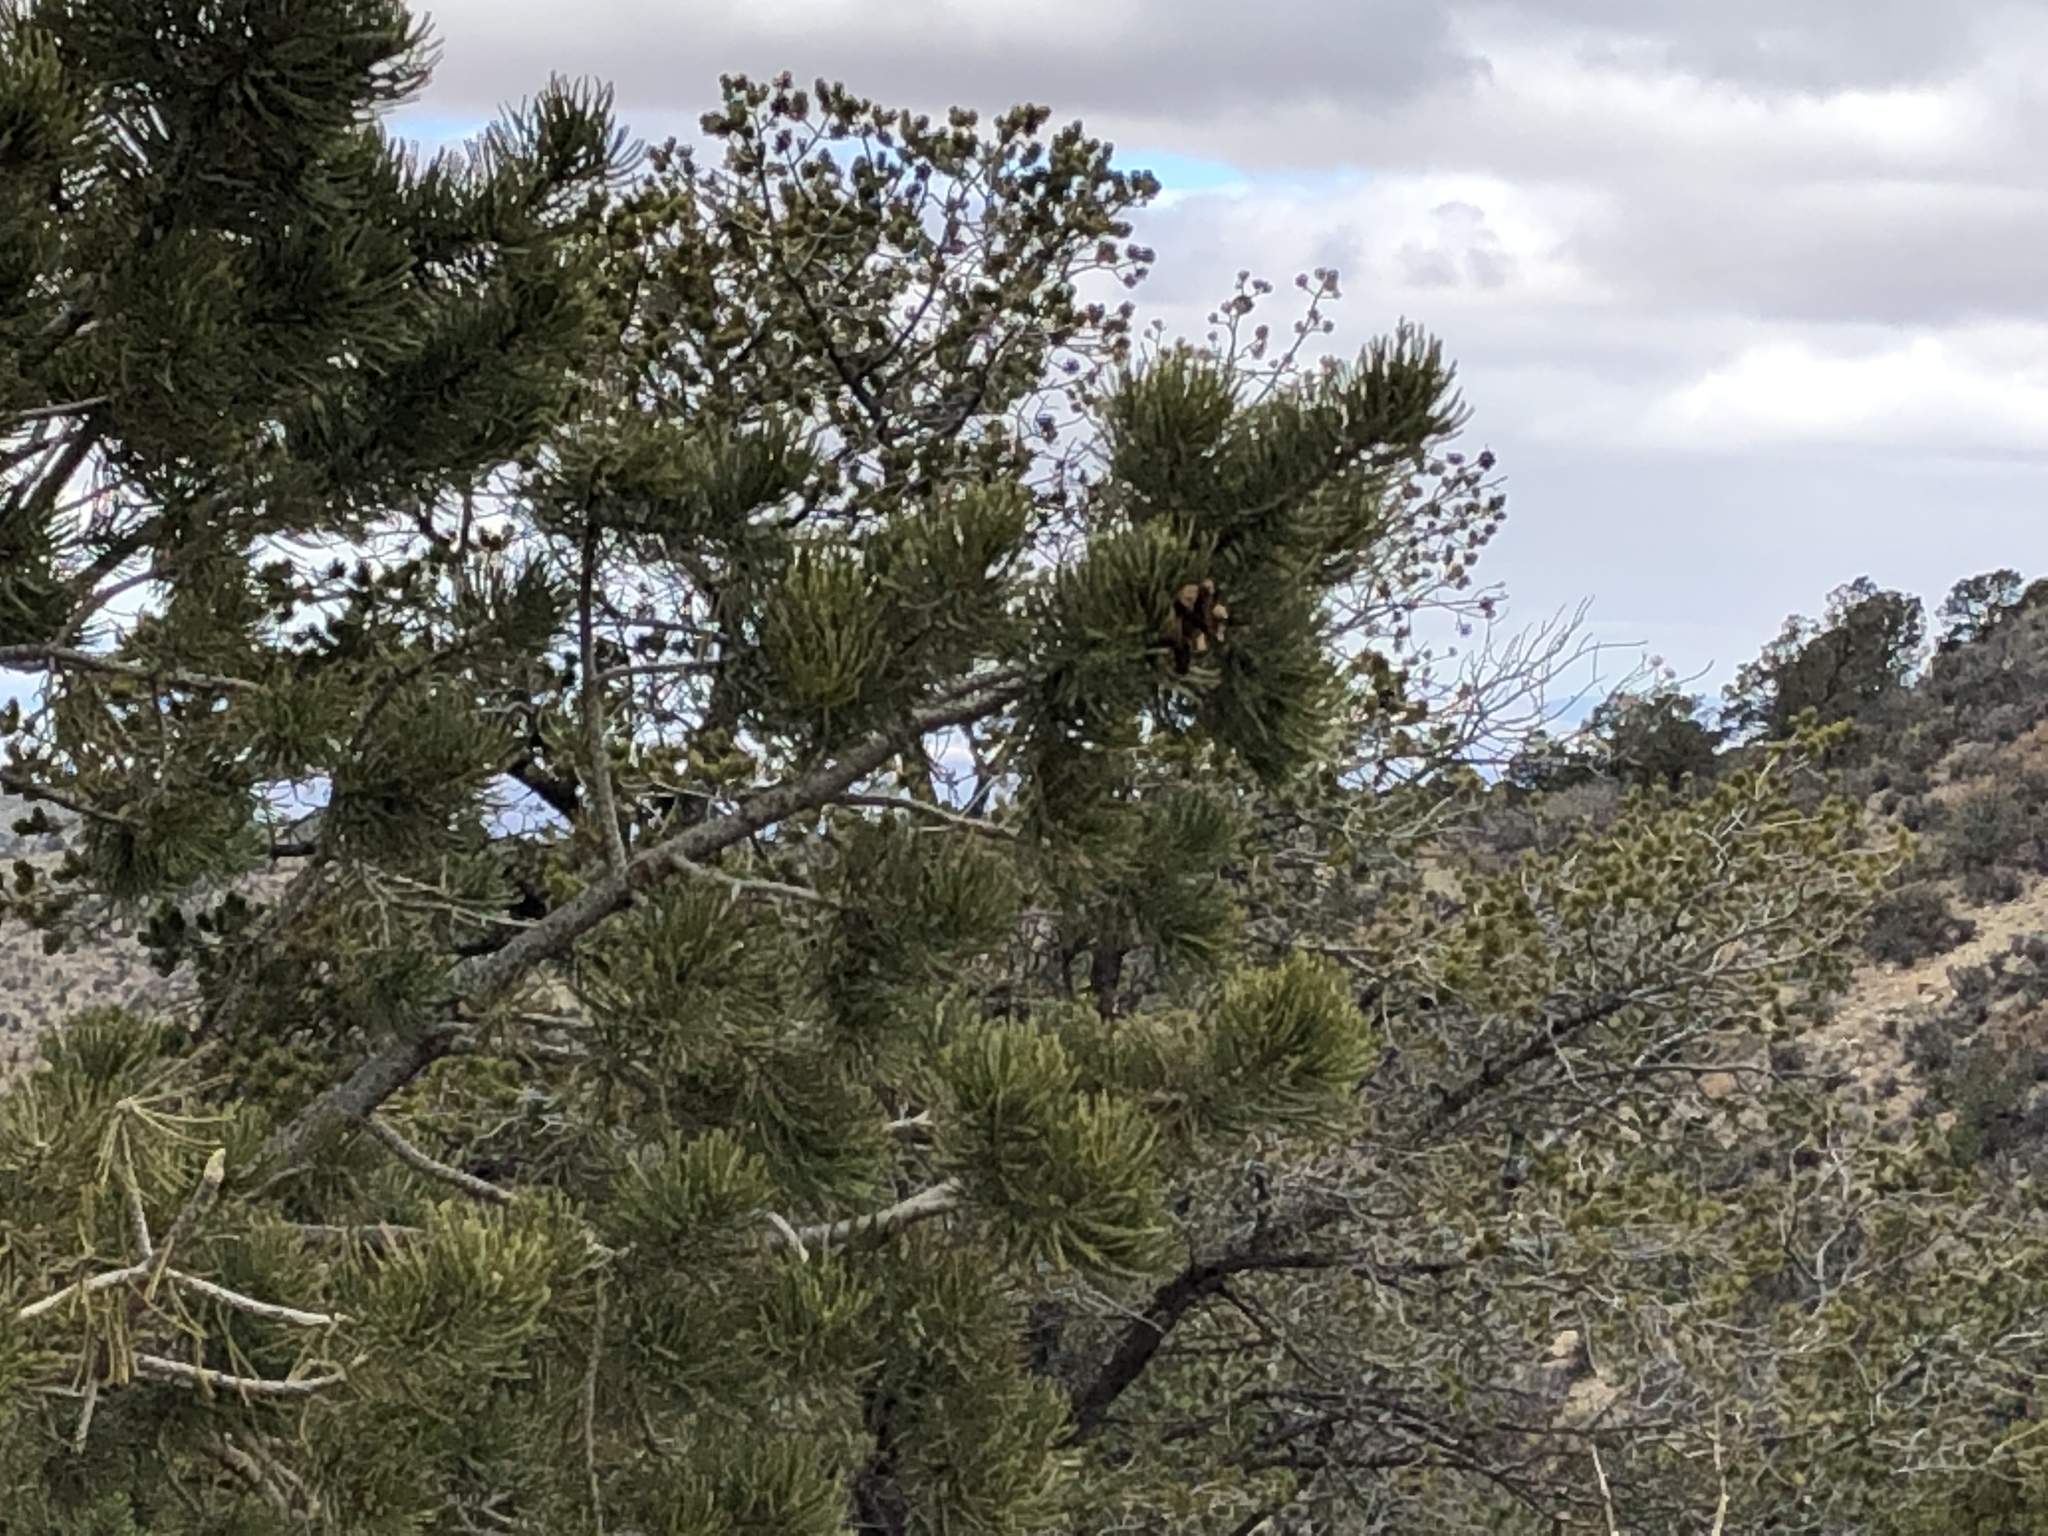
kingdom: Plantae
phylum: Tracheophyta
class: Pinopsida
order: Pinales
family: Pinaceae
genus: Pinus
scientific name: Pinus edulis
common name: Colorado pinyon
